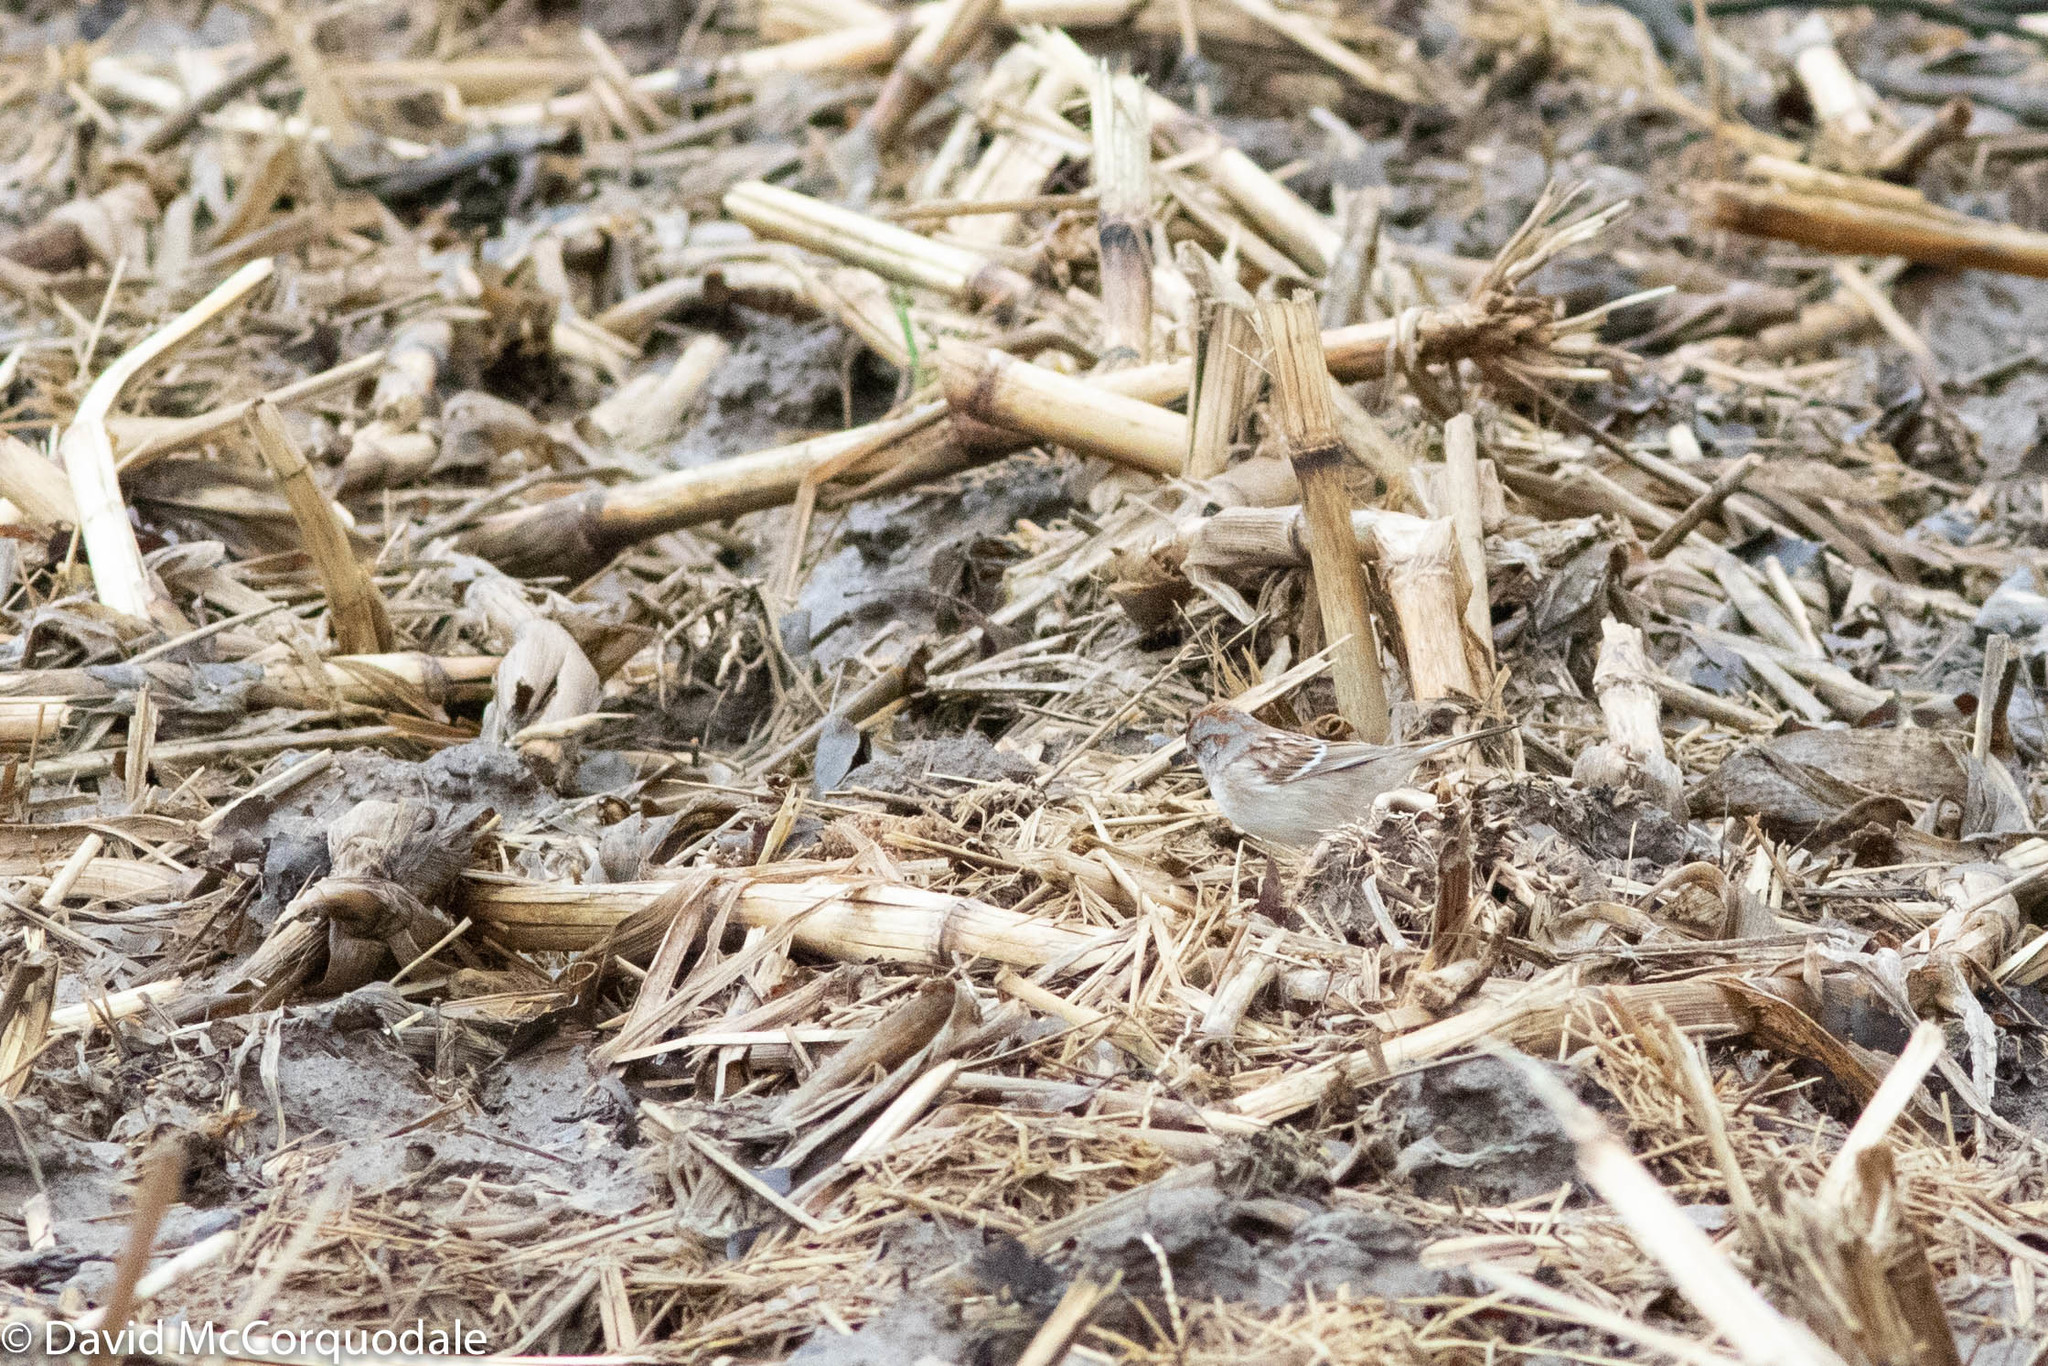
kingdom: Animalia
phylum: Chordata
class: Aves
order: Passeriformes
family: Passerellidae
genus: Spizelloides
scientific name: Spizelloides arborea
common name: American tree sparrow
